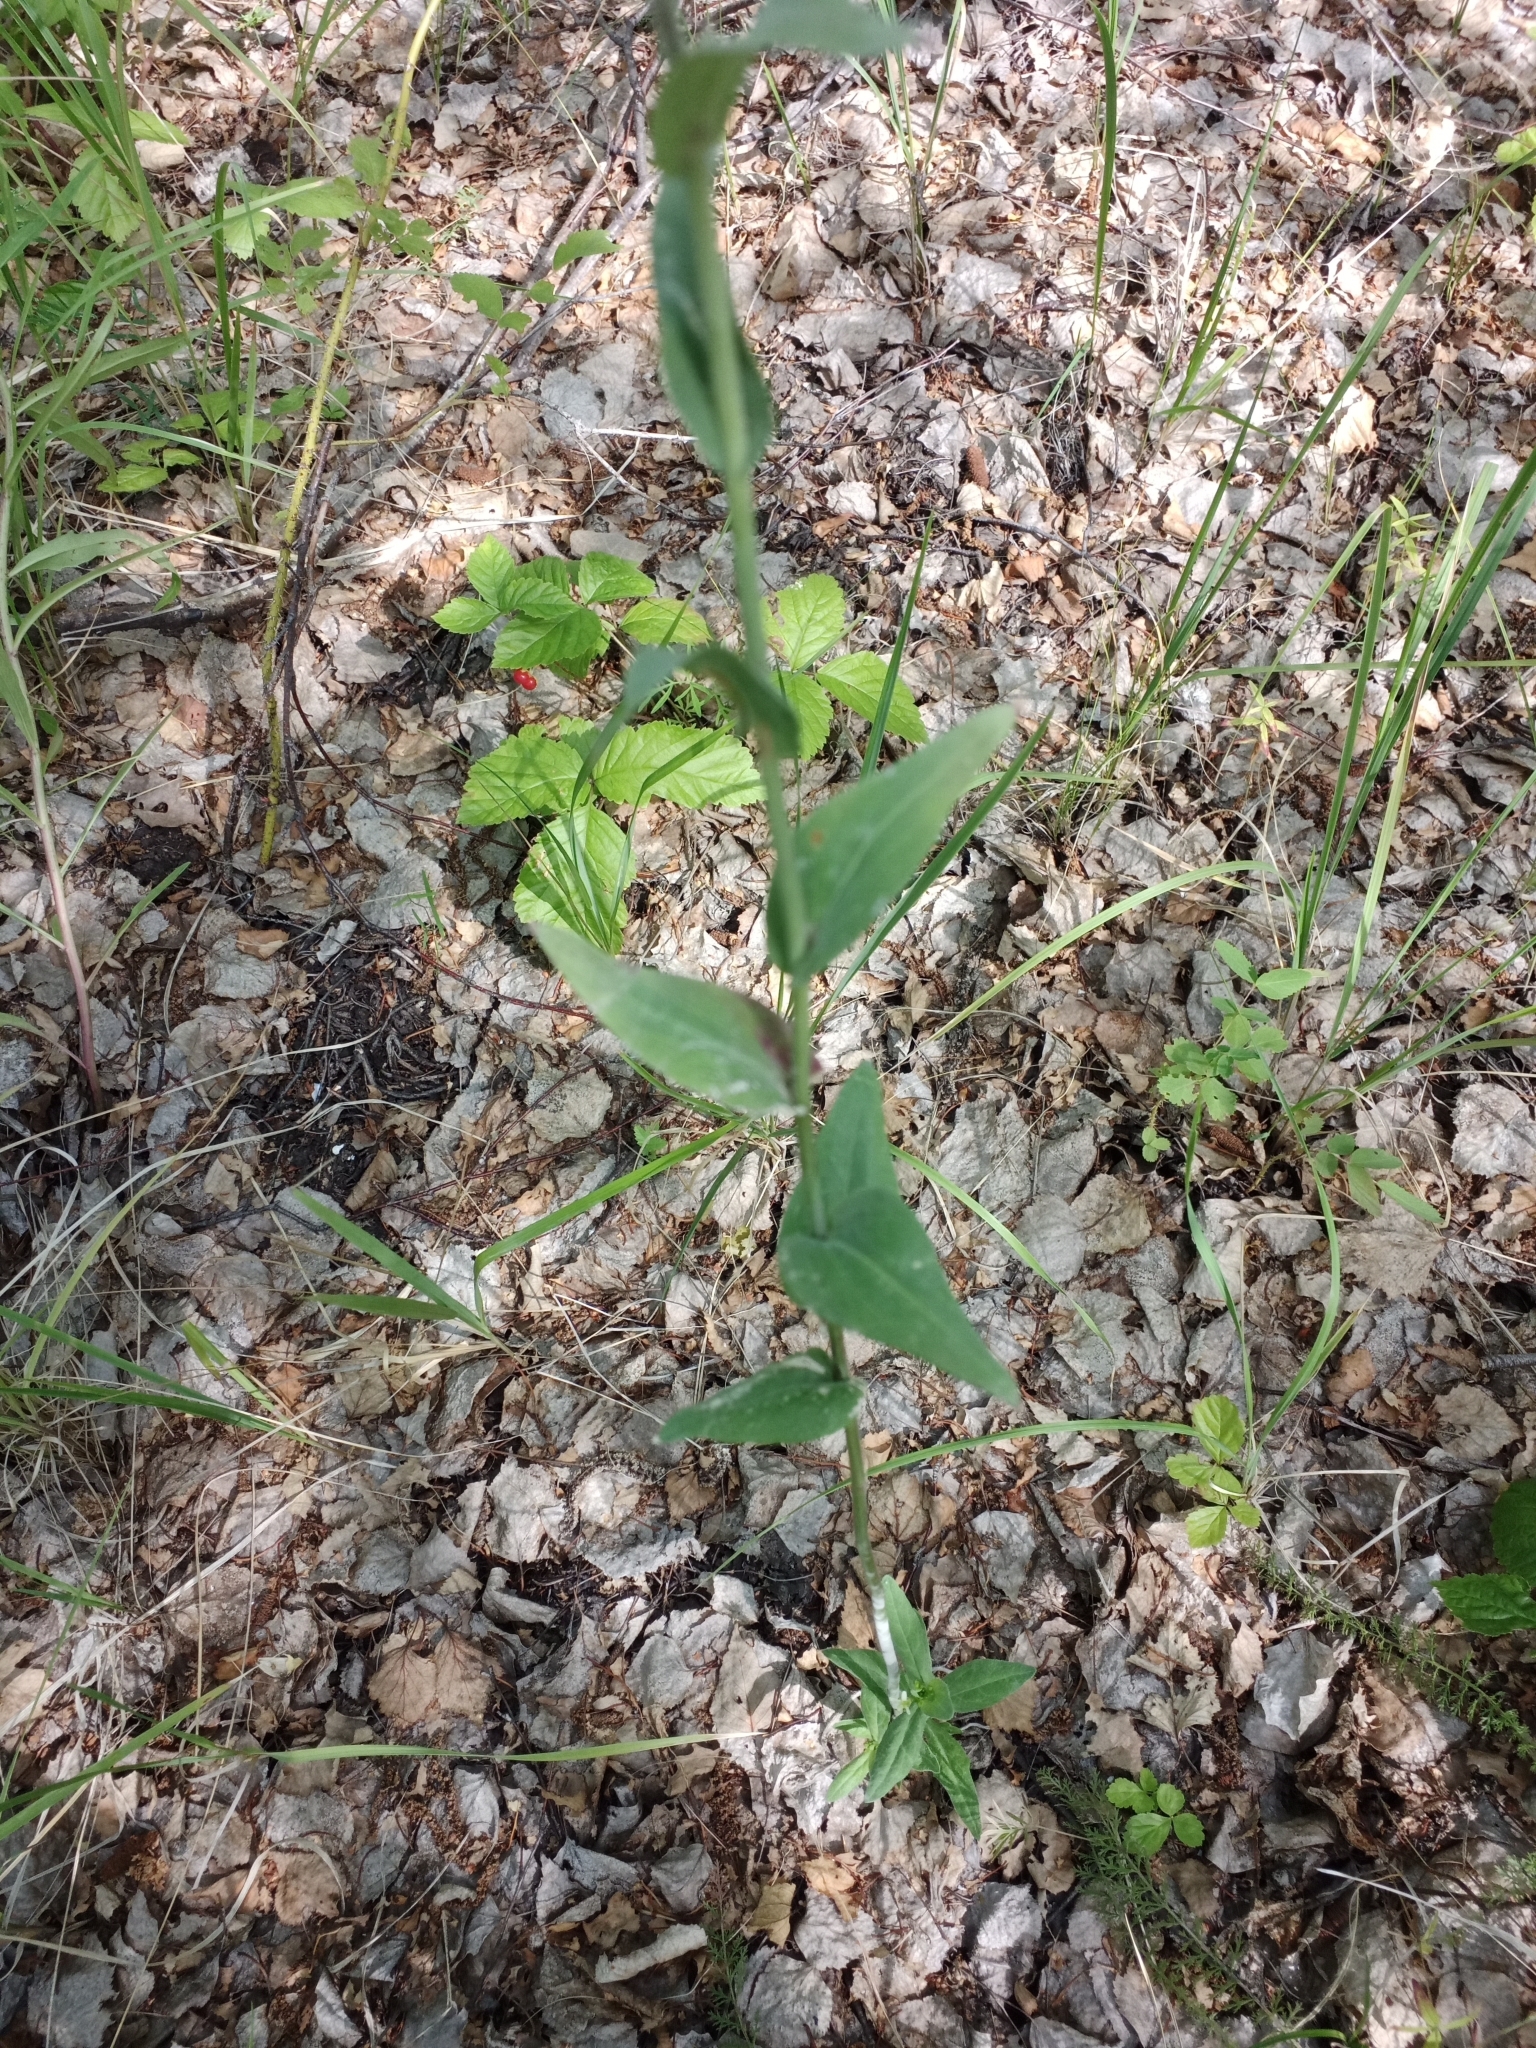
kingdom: Plantae
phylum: Tracheophyta
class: Magnoliopsida
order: Brassicales
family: Brassicaceae
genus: Turritis
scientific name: Turritis glabra
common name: Tower rockcress
